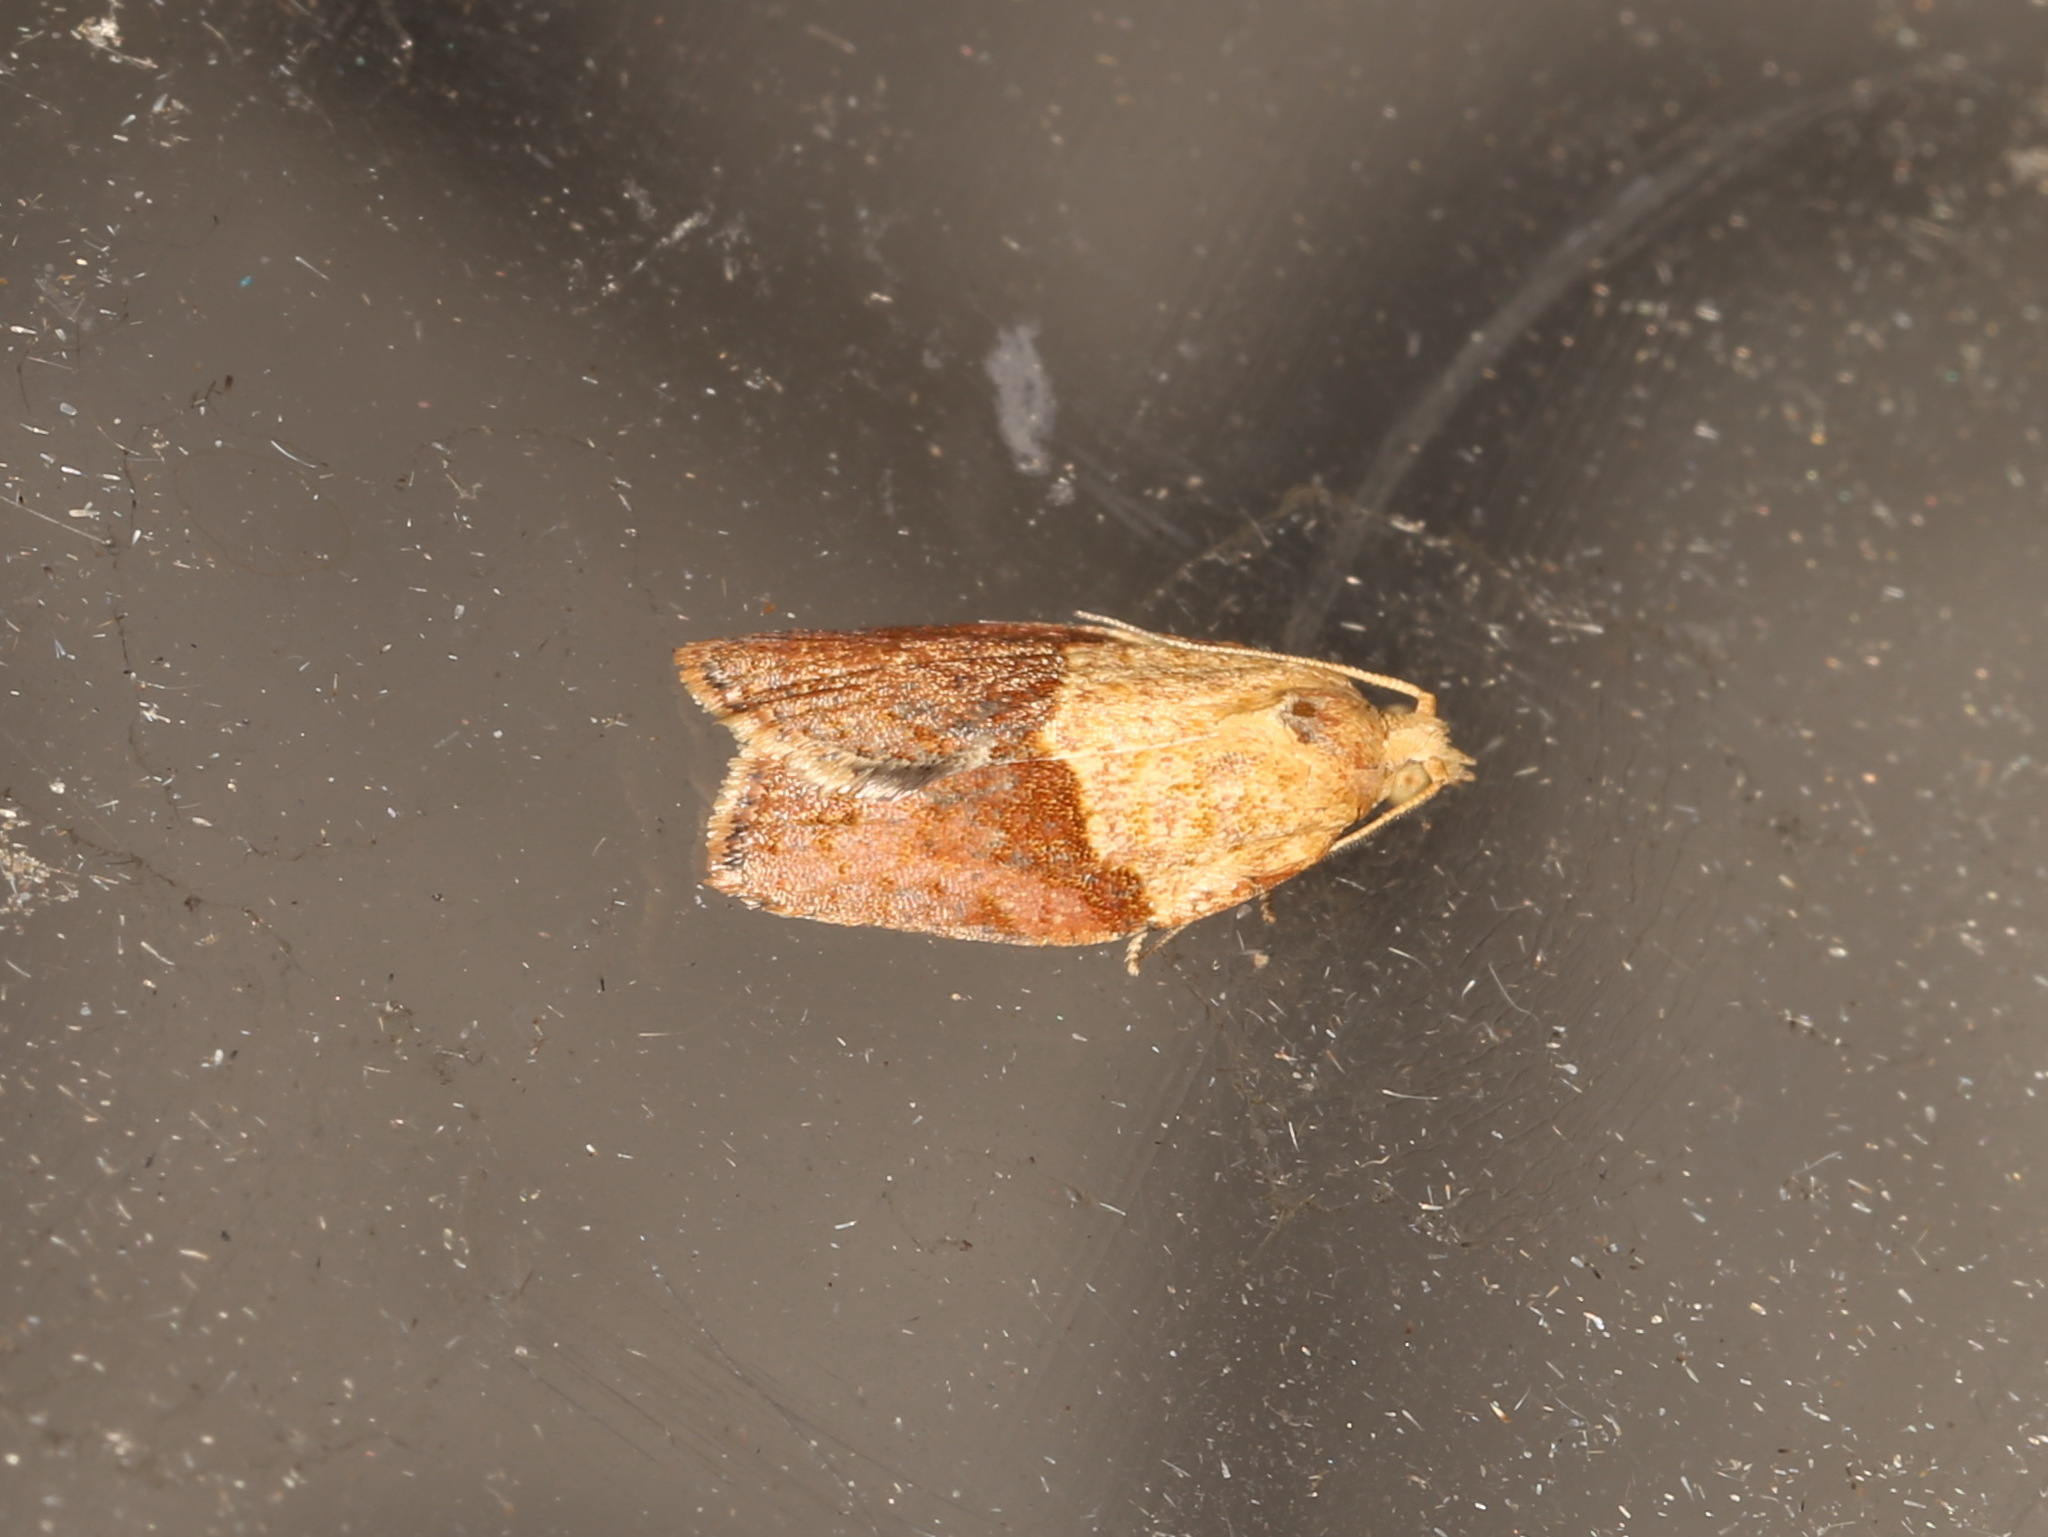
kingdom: Animalia
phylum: Arthropoda
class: Insecta
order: Lepidoptera
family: Tortricidae
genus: Epiphyas
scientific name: Epiphyas postvittana
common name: Light brown apple moth
